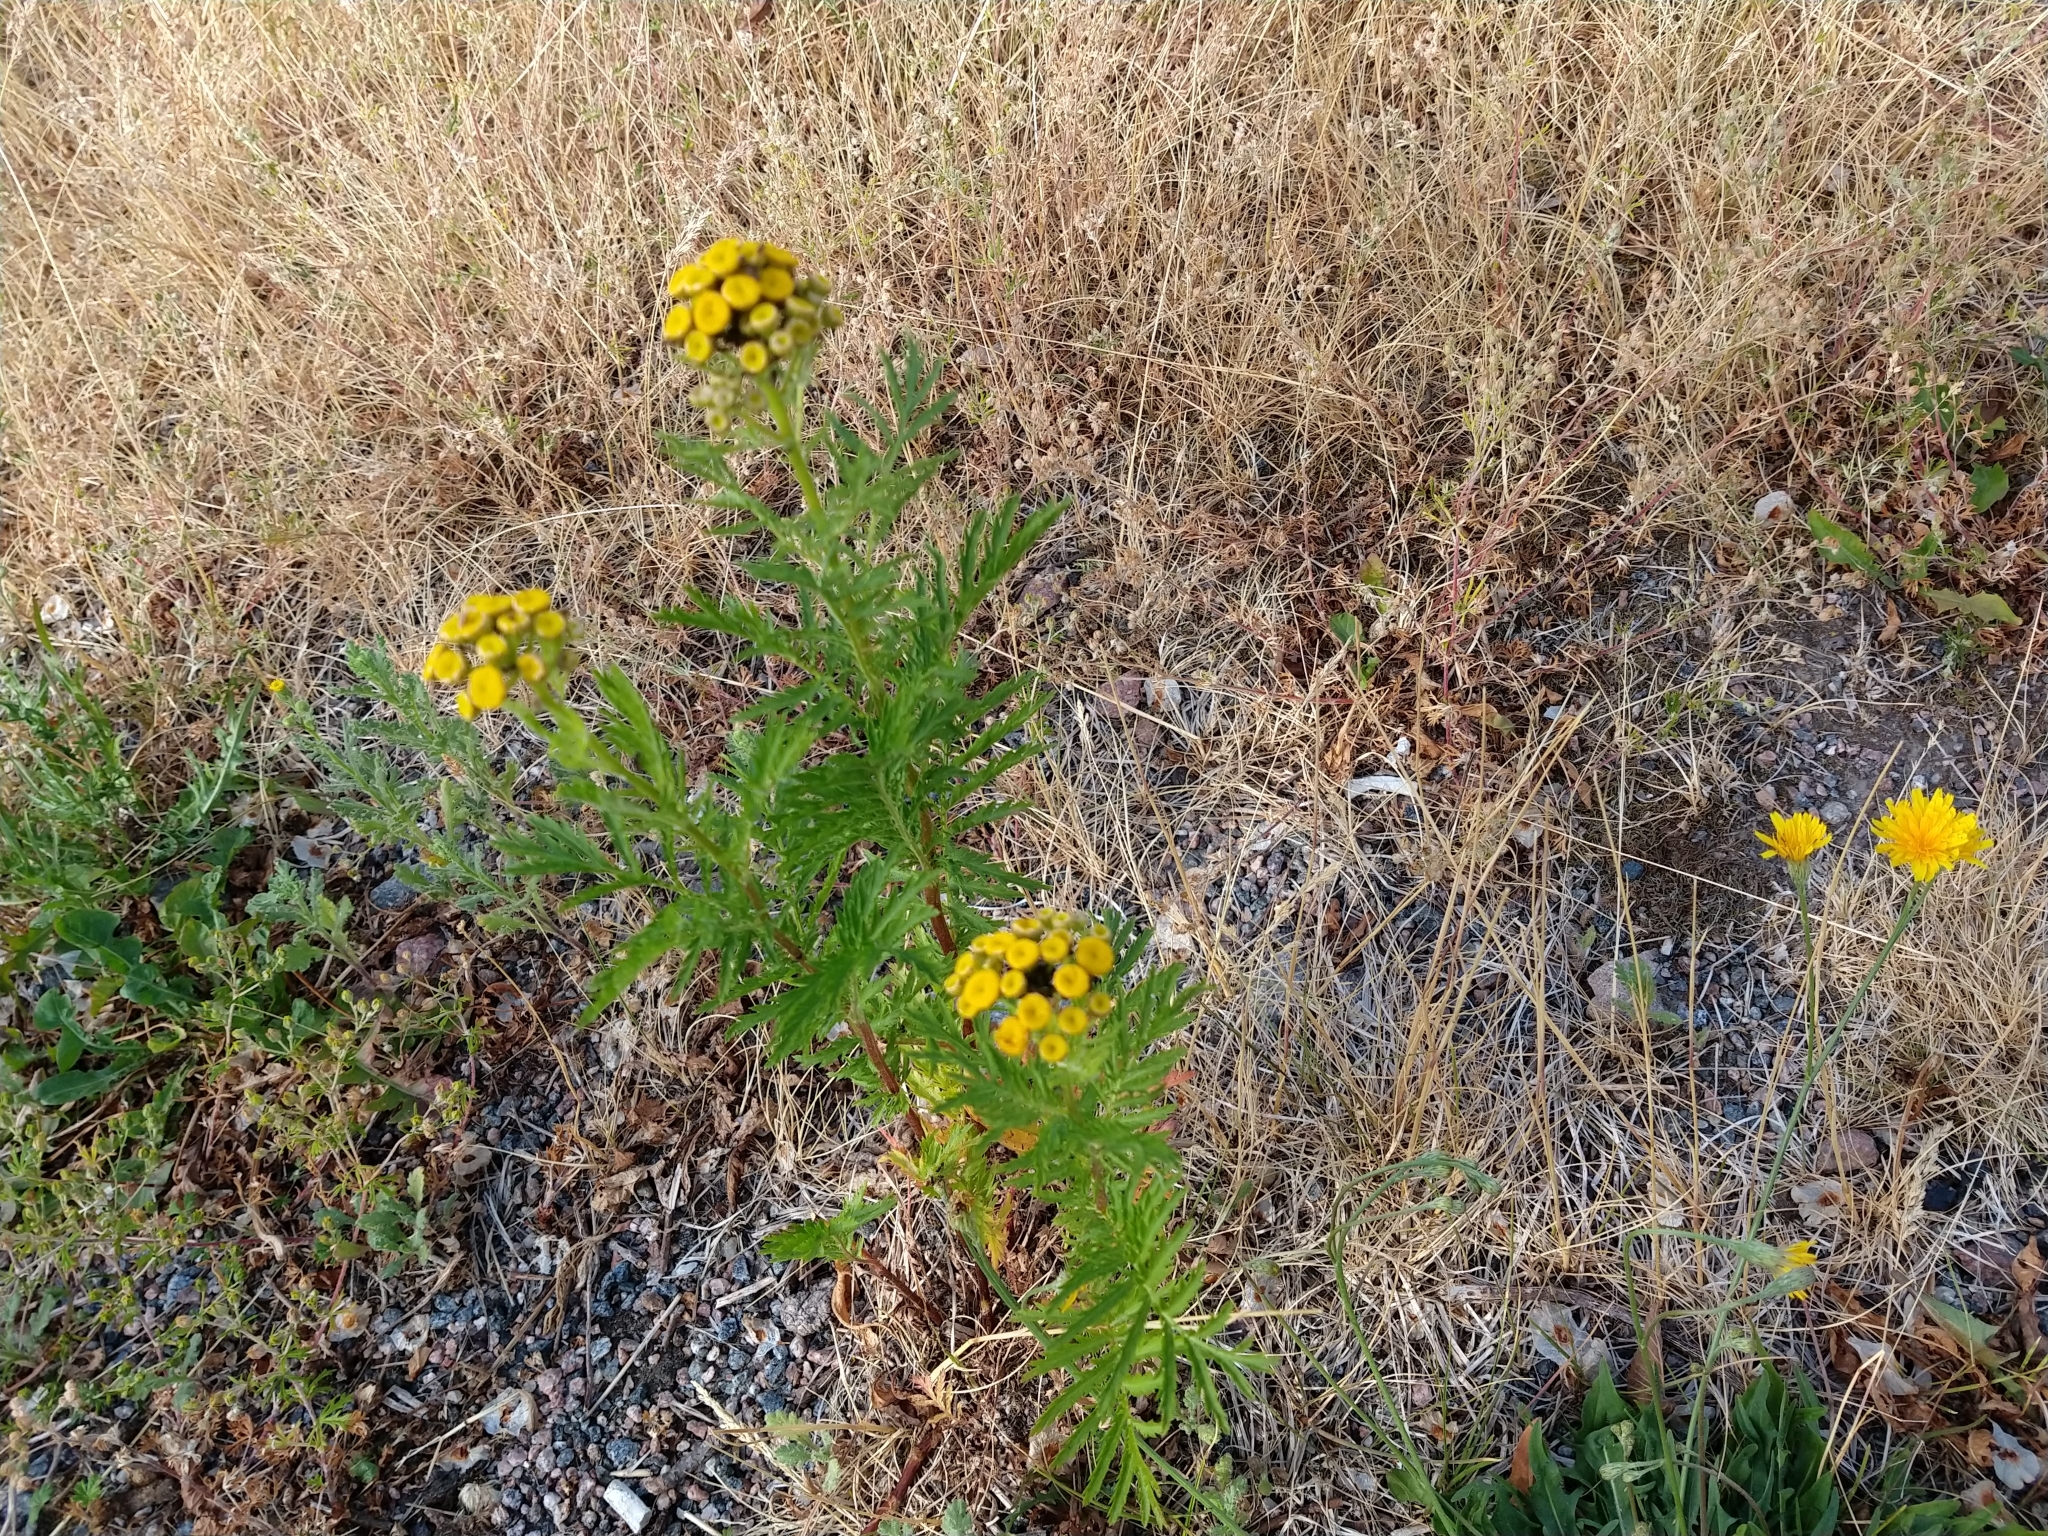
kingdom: Plantae
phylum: Tracheophyta
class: Magnoliopsida
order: Asterales
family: Asteraceae
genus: Tanacetum
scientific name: Tanacetum vulgare
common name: Common tansy
